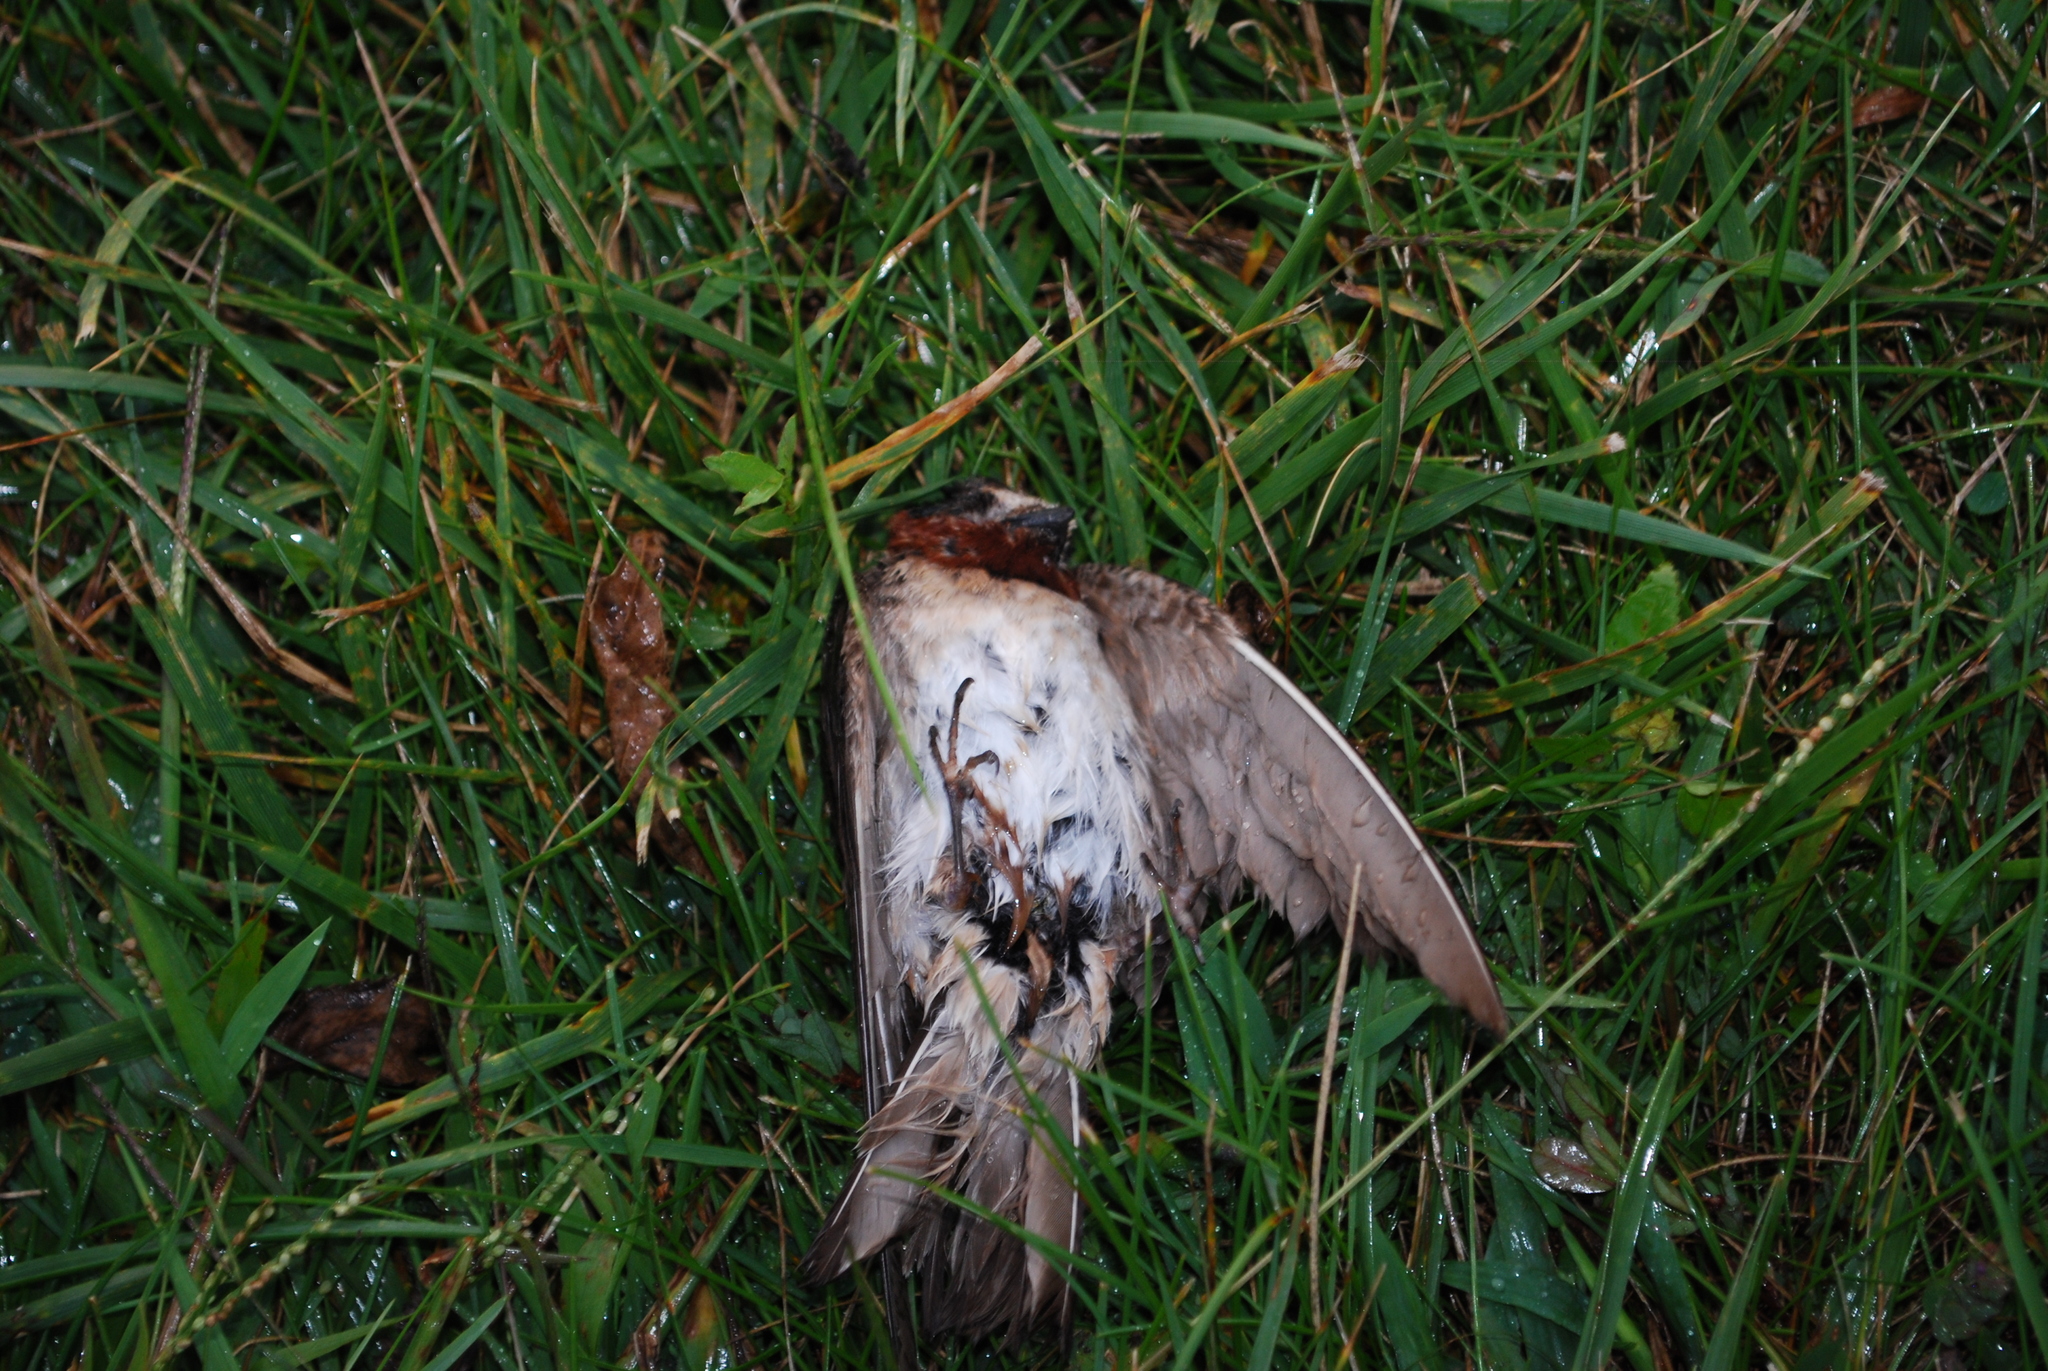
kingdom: Animalia
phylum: Chordata
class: Aves
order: Passeriformes
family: Hirundinidae
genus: Petrochelidon
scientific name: Petrochelidon pyrrhonota
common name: American cliff swallow
